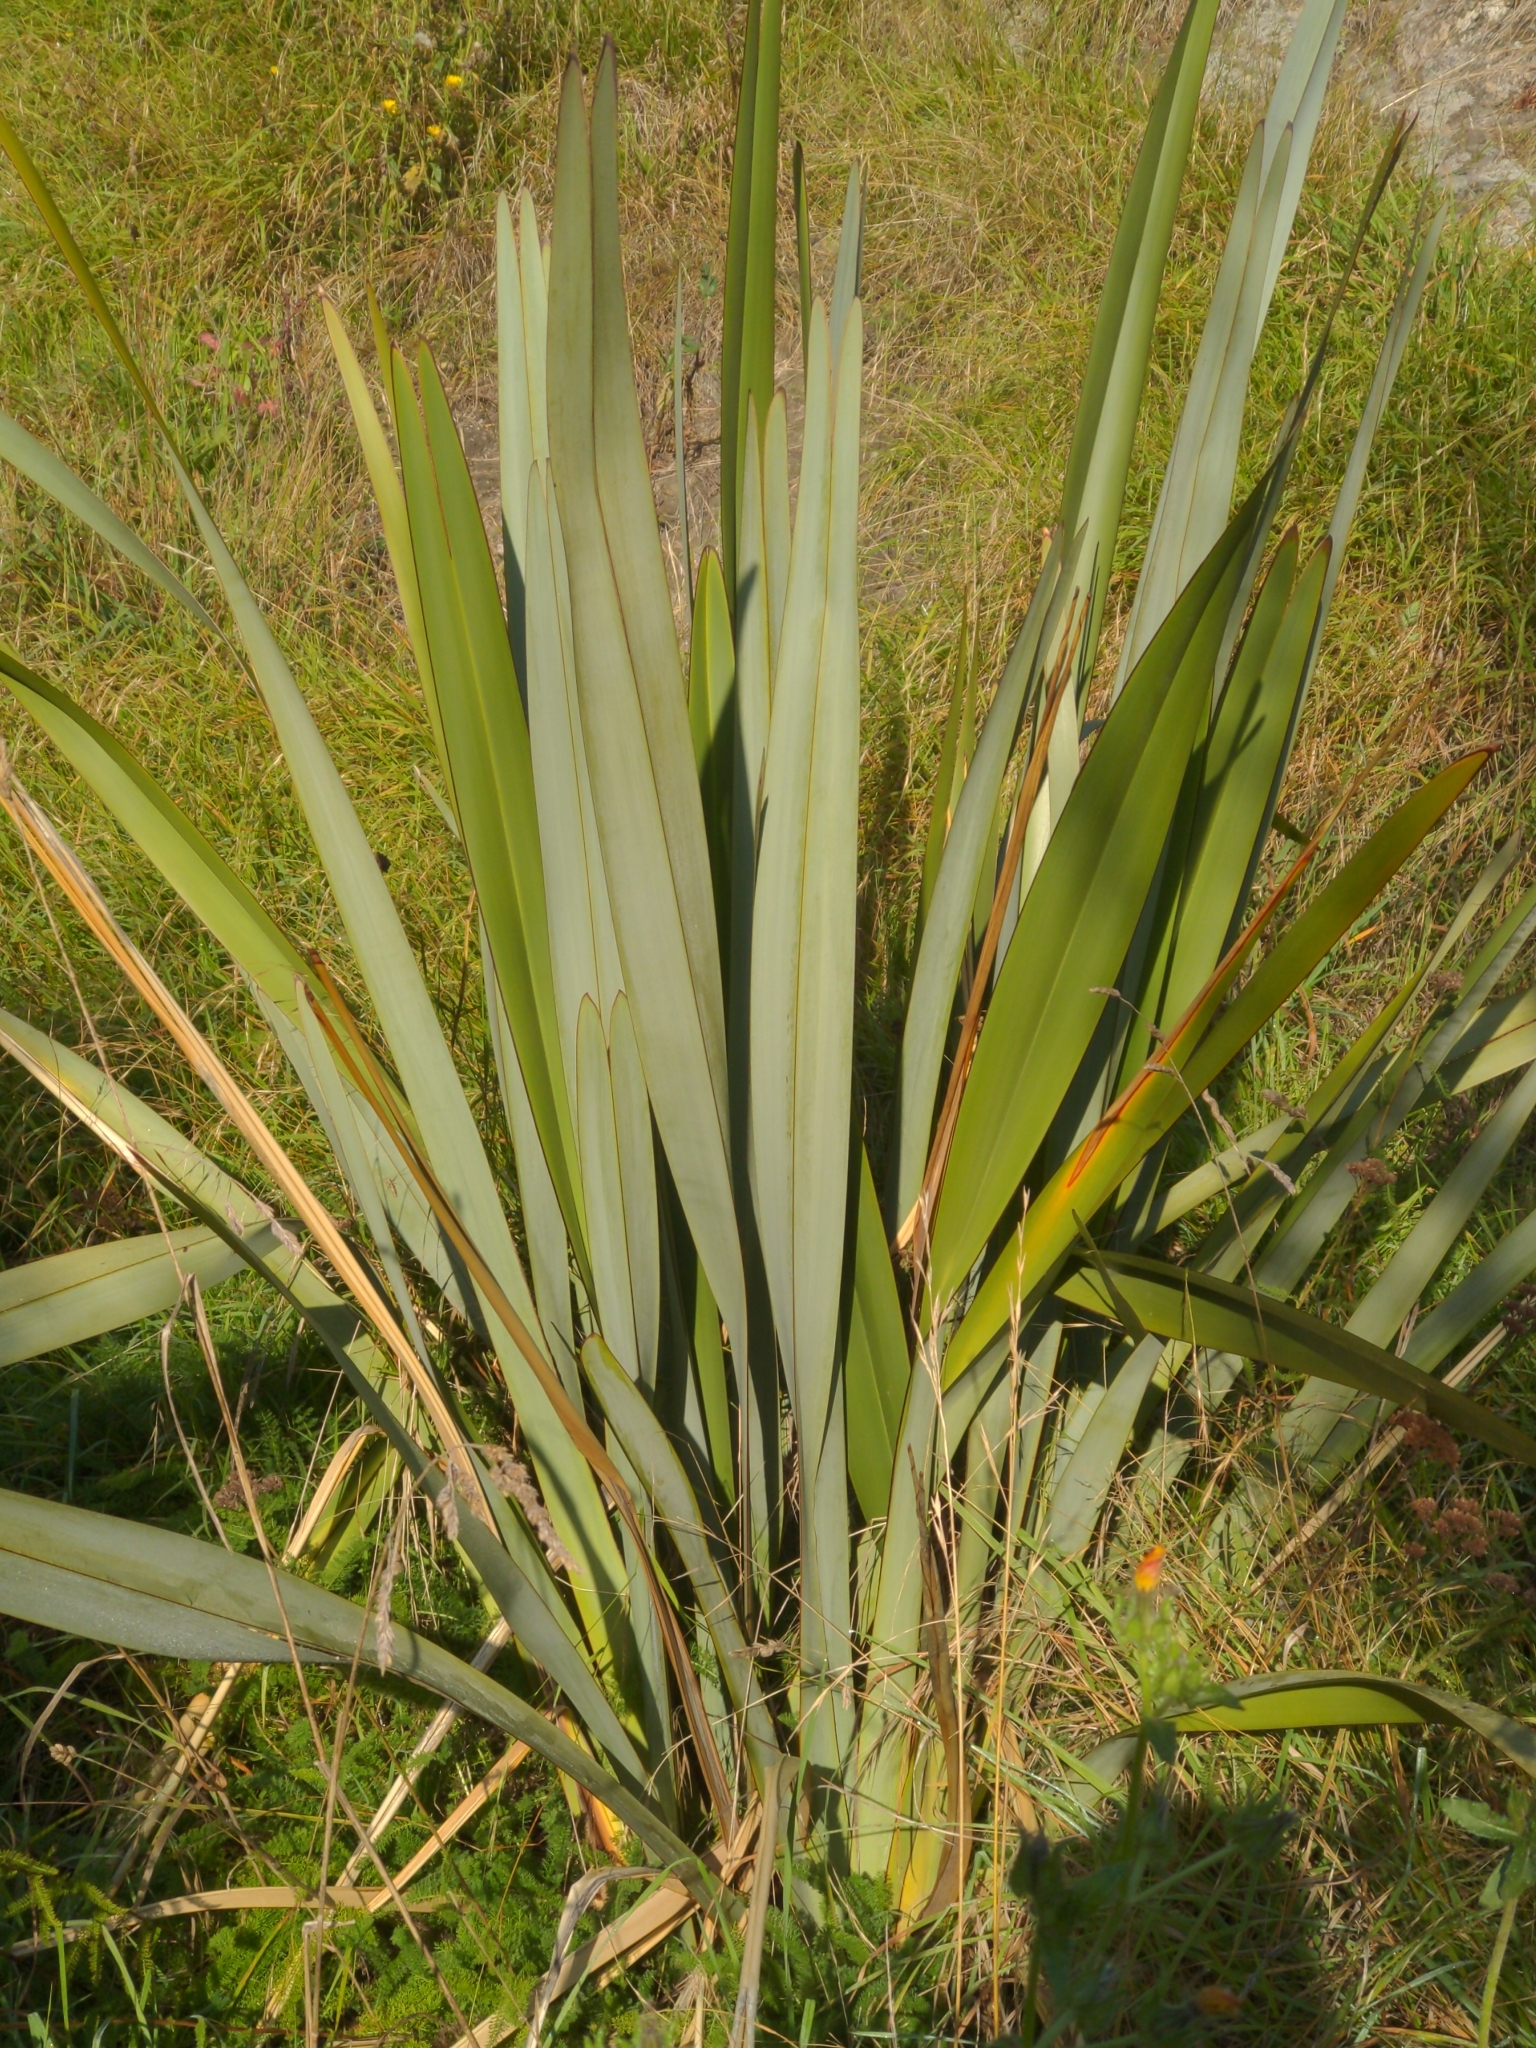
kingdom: Plantae
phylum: Tracheophyta
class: Liliopsida
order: Asparagales
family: Asphodelaceae
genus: Phormium
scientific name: Phormium tenax
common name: New zealand flax
